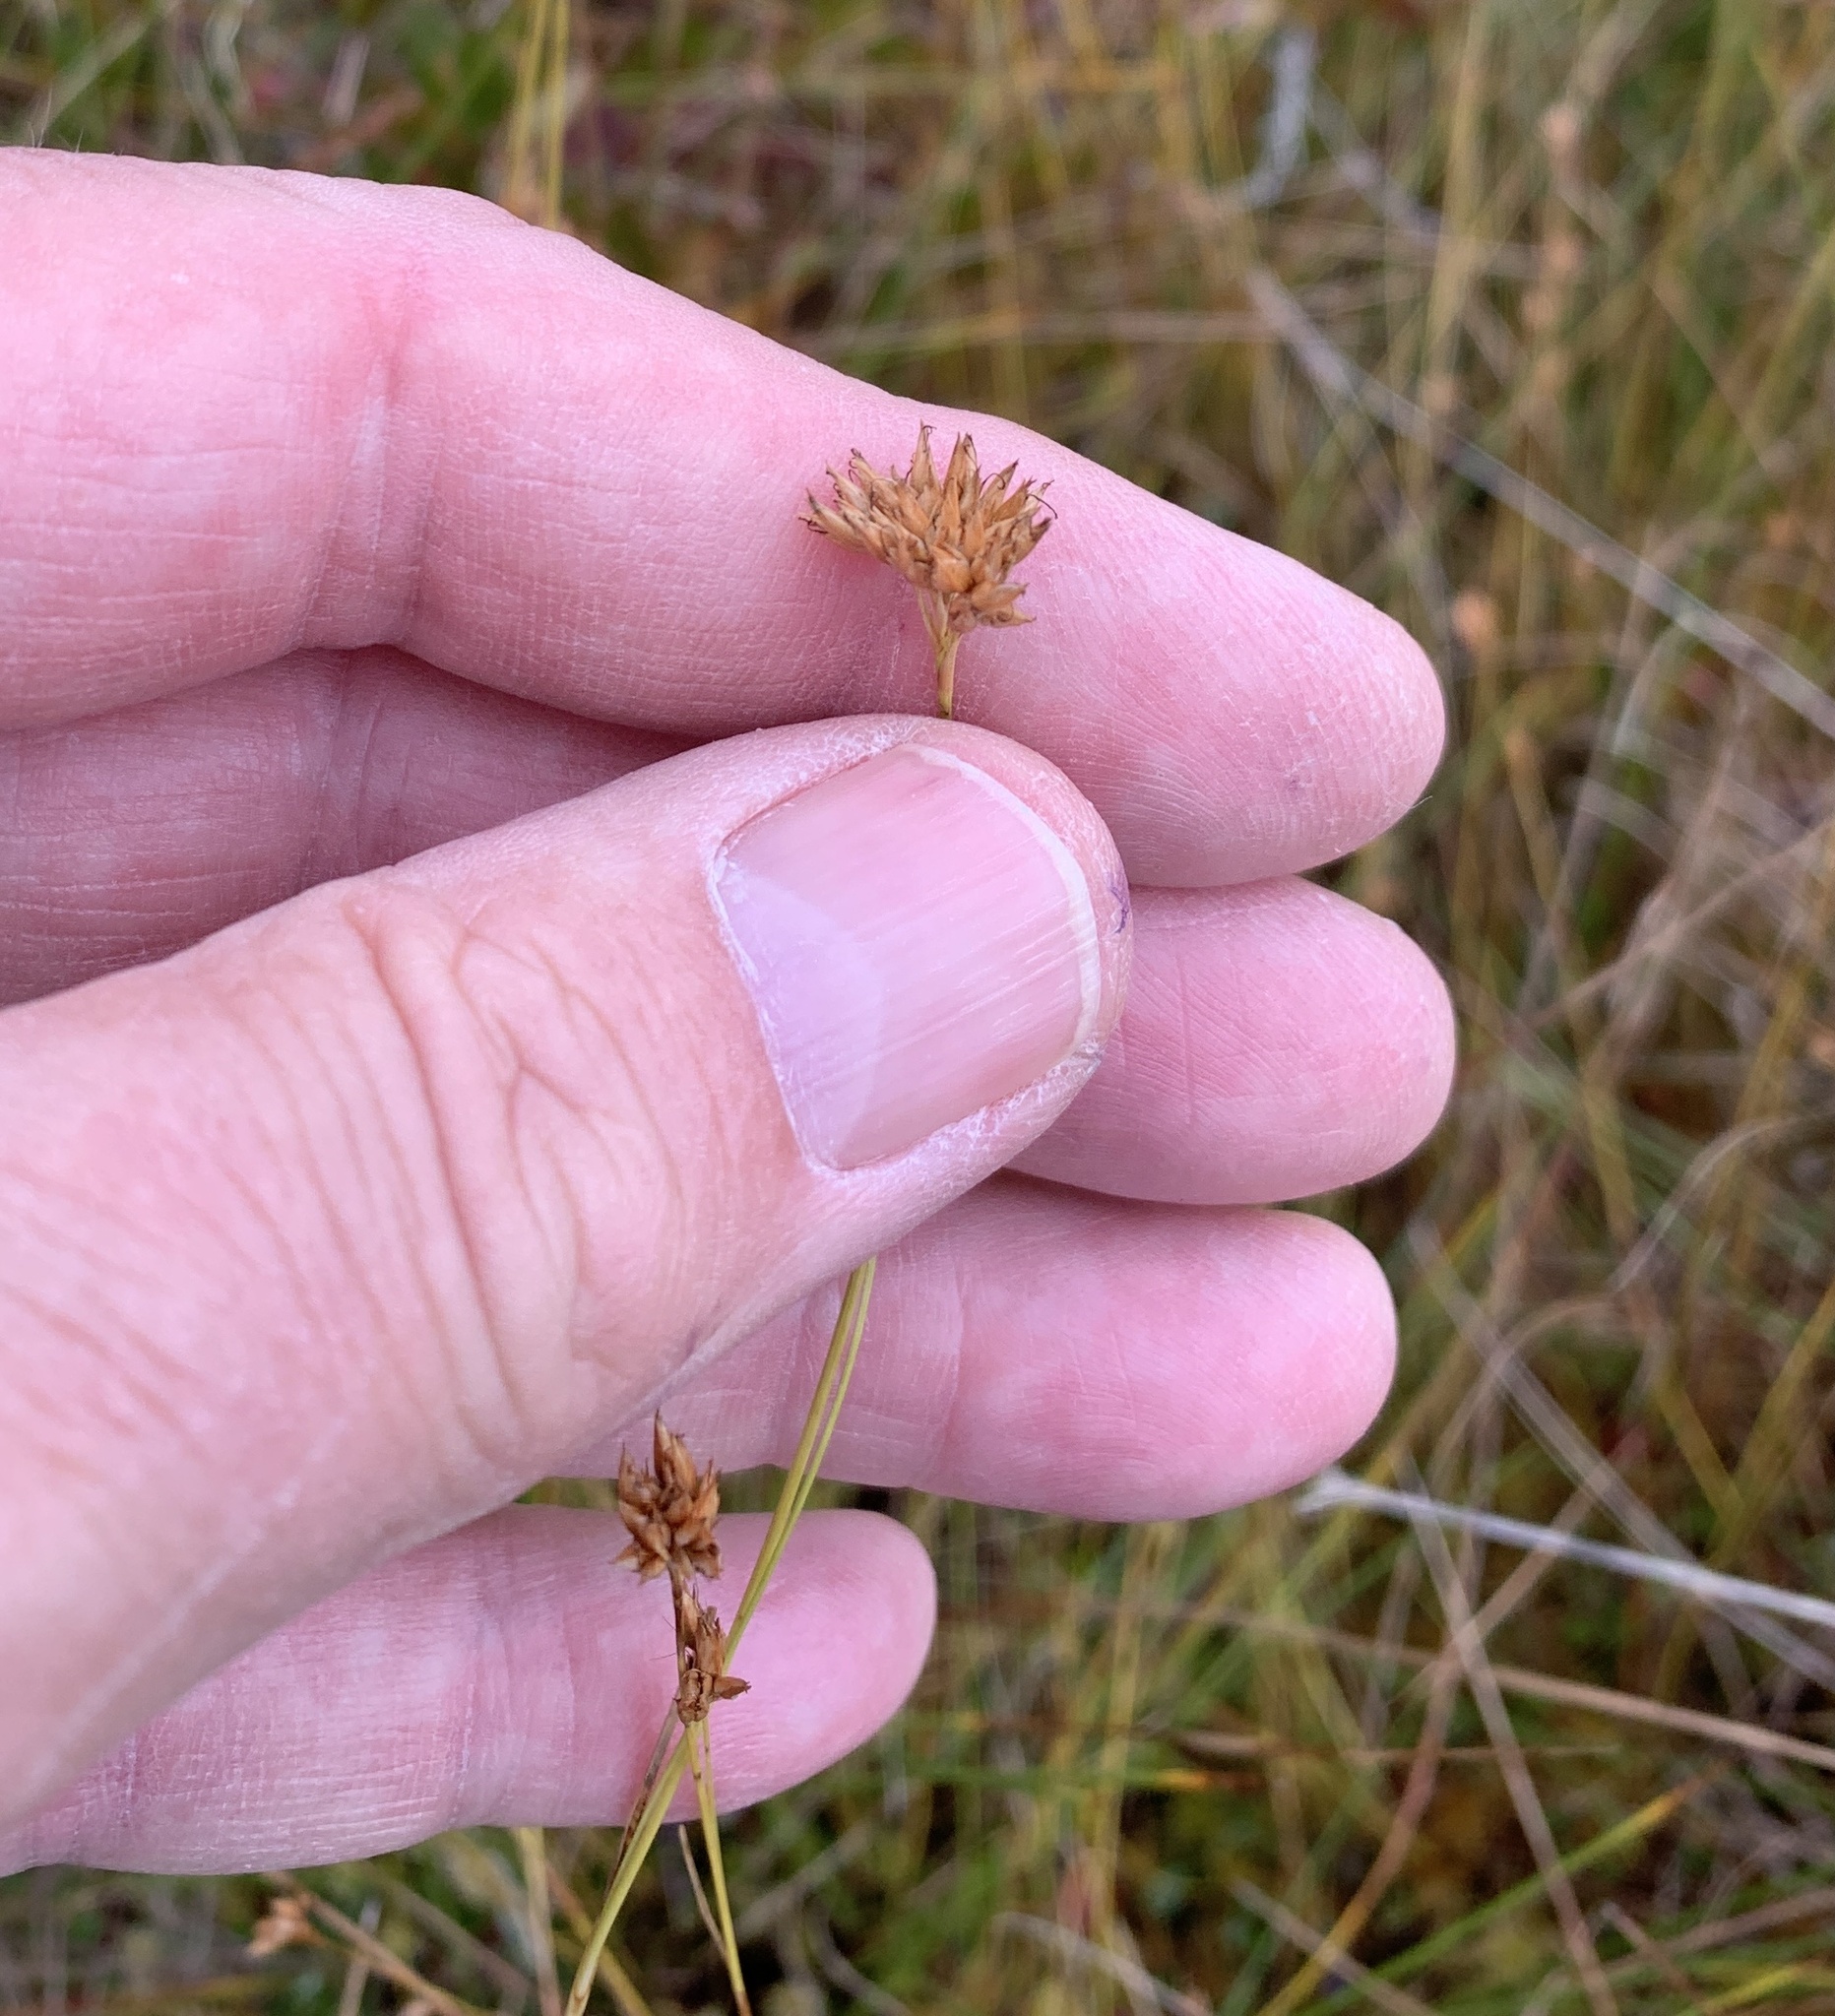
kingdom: Plantae
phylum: Tracheophyta
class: Liliopsida
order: Poales
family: Cyperaceae
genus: Rhynchospora
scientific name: Rhynchospora alba
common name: White beak-sedge
